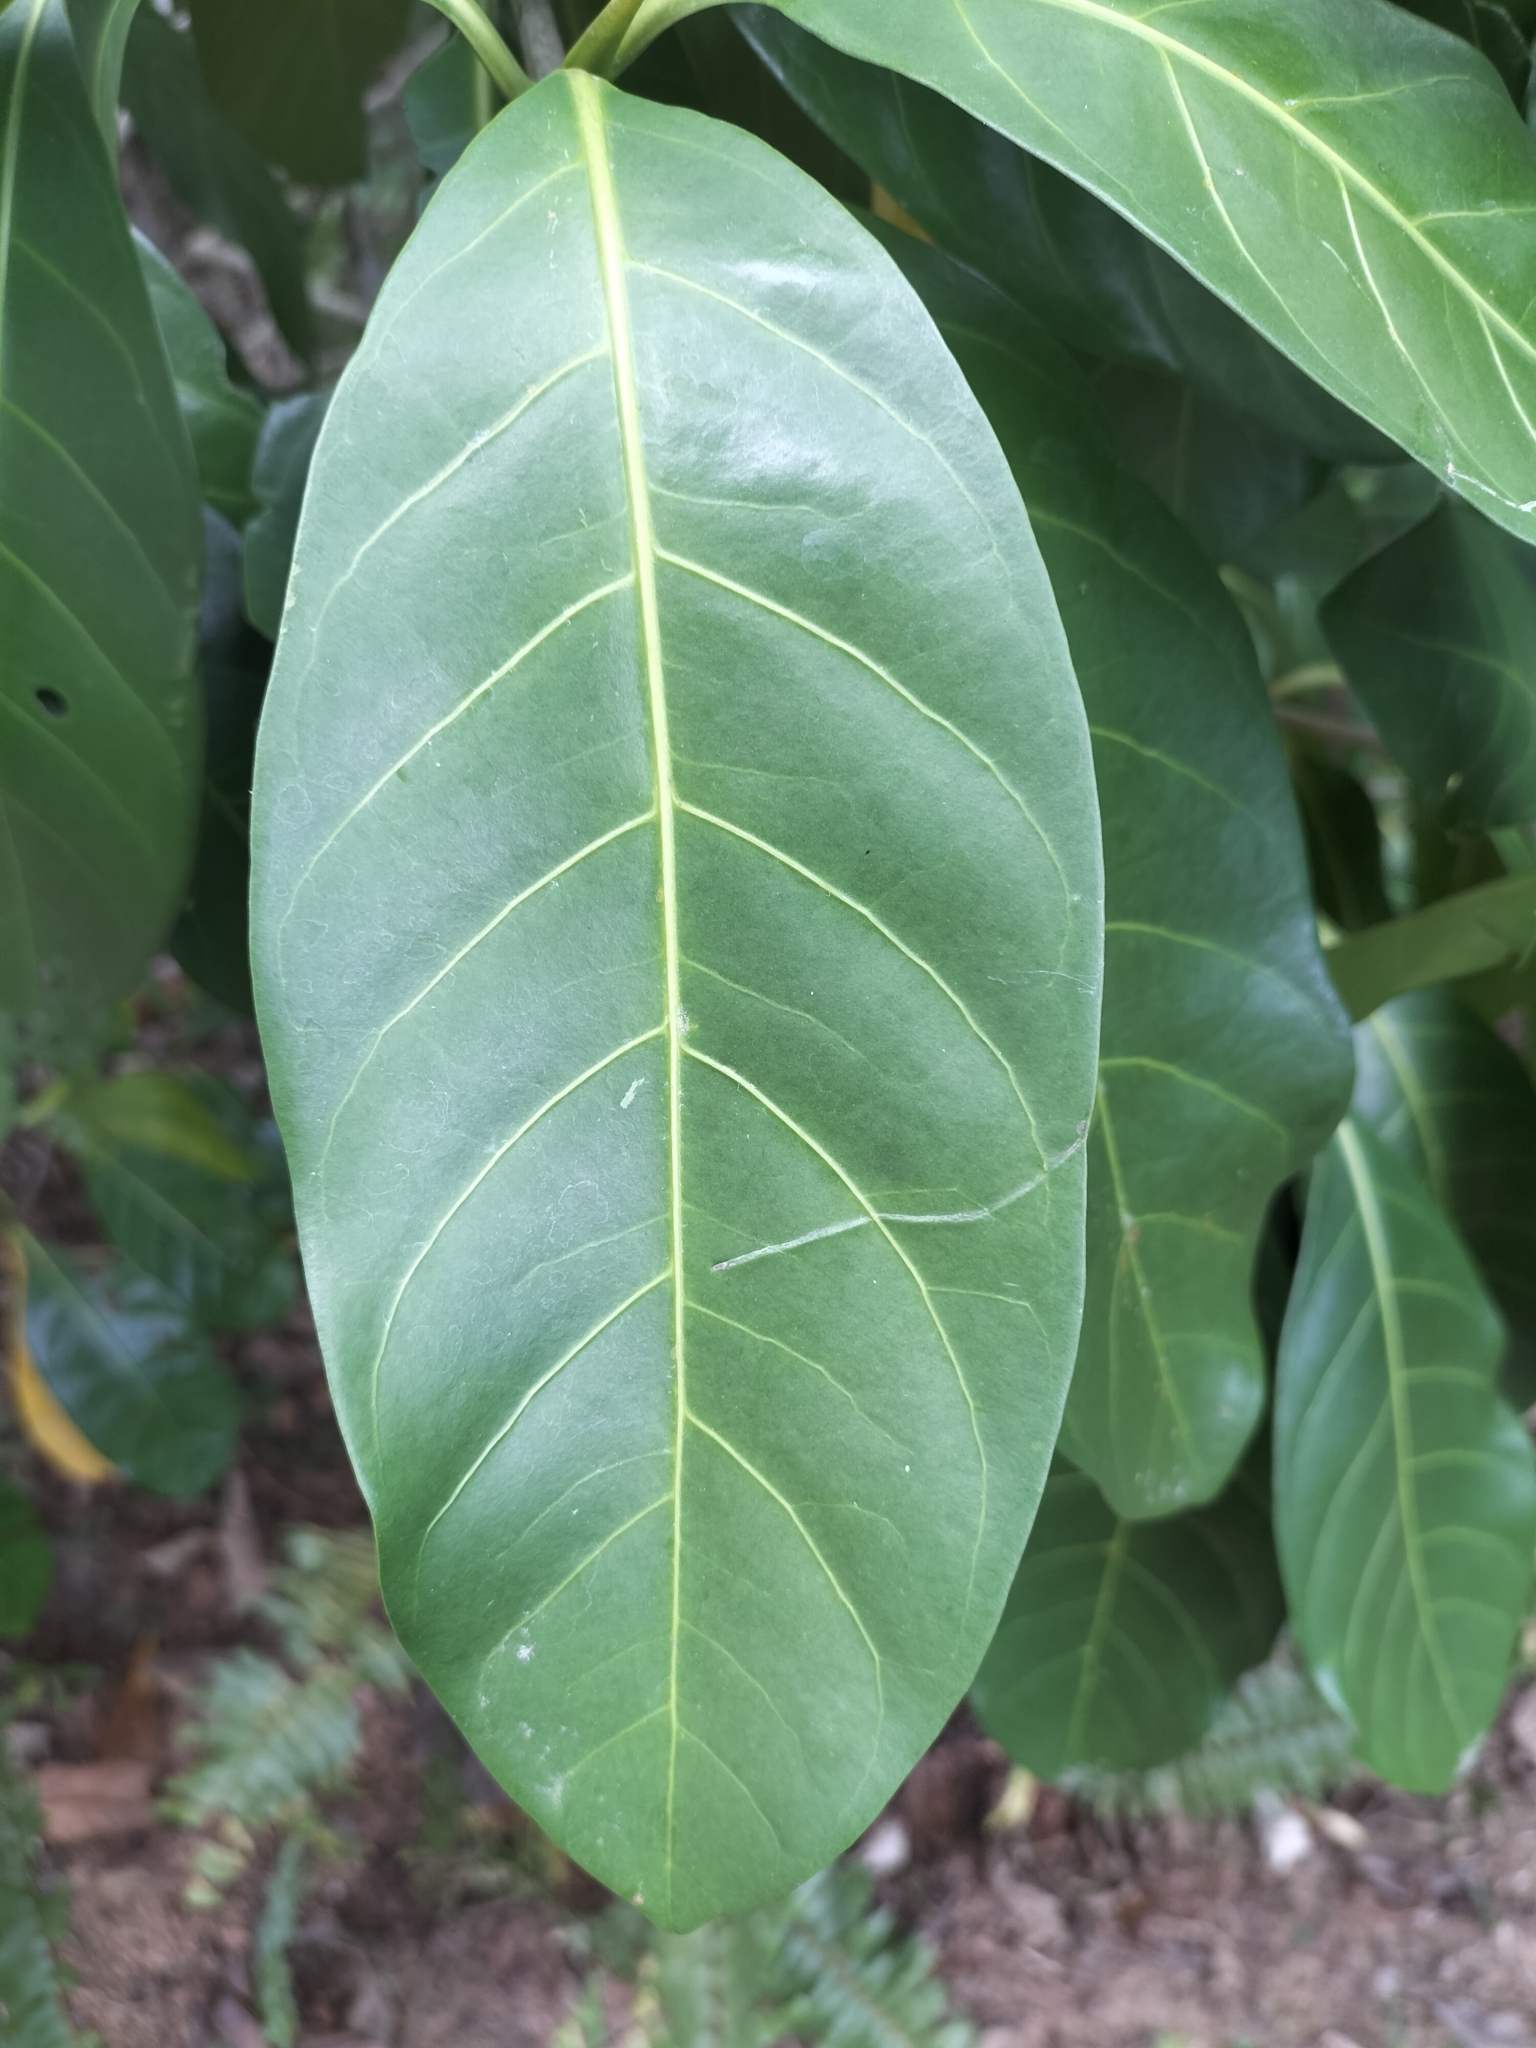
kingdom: Plantae
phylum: Tracheophyta
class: Magnoliopsida
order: Gentianales
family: Rubiaceae
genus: Atractocarpus
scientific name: Atractocarpus fitzalanii
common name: Randia
